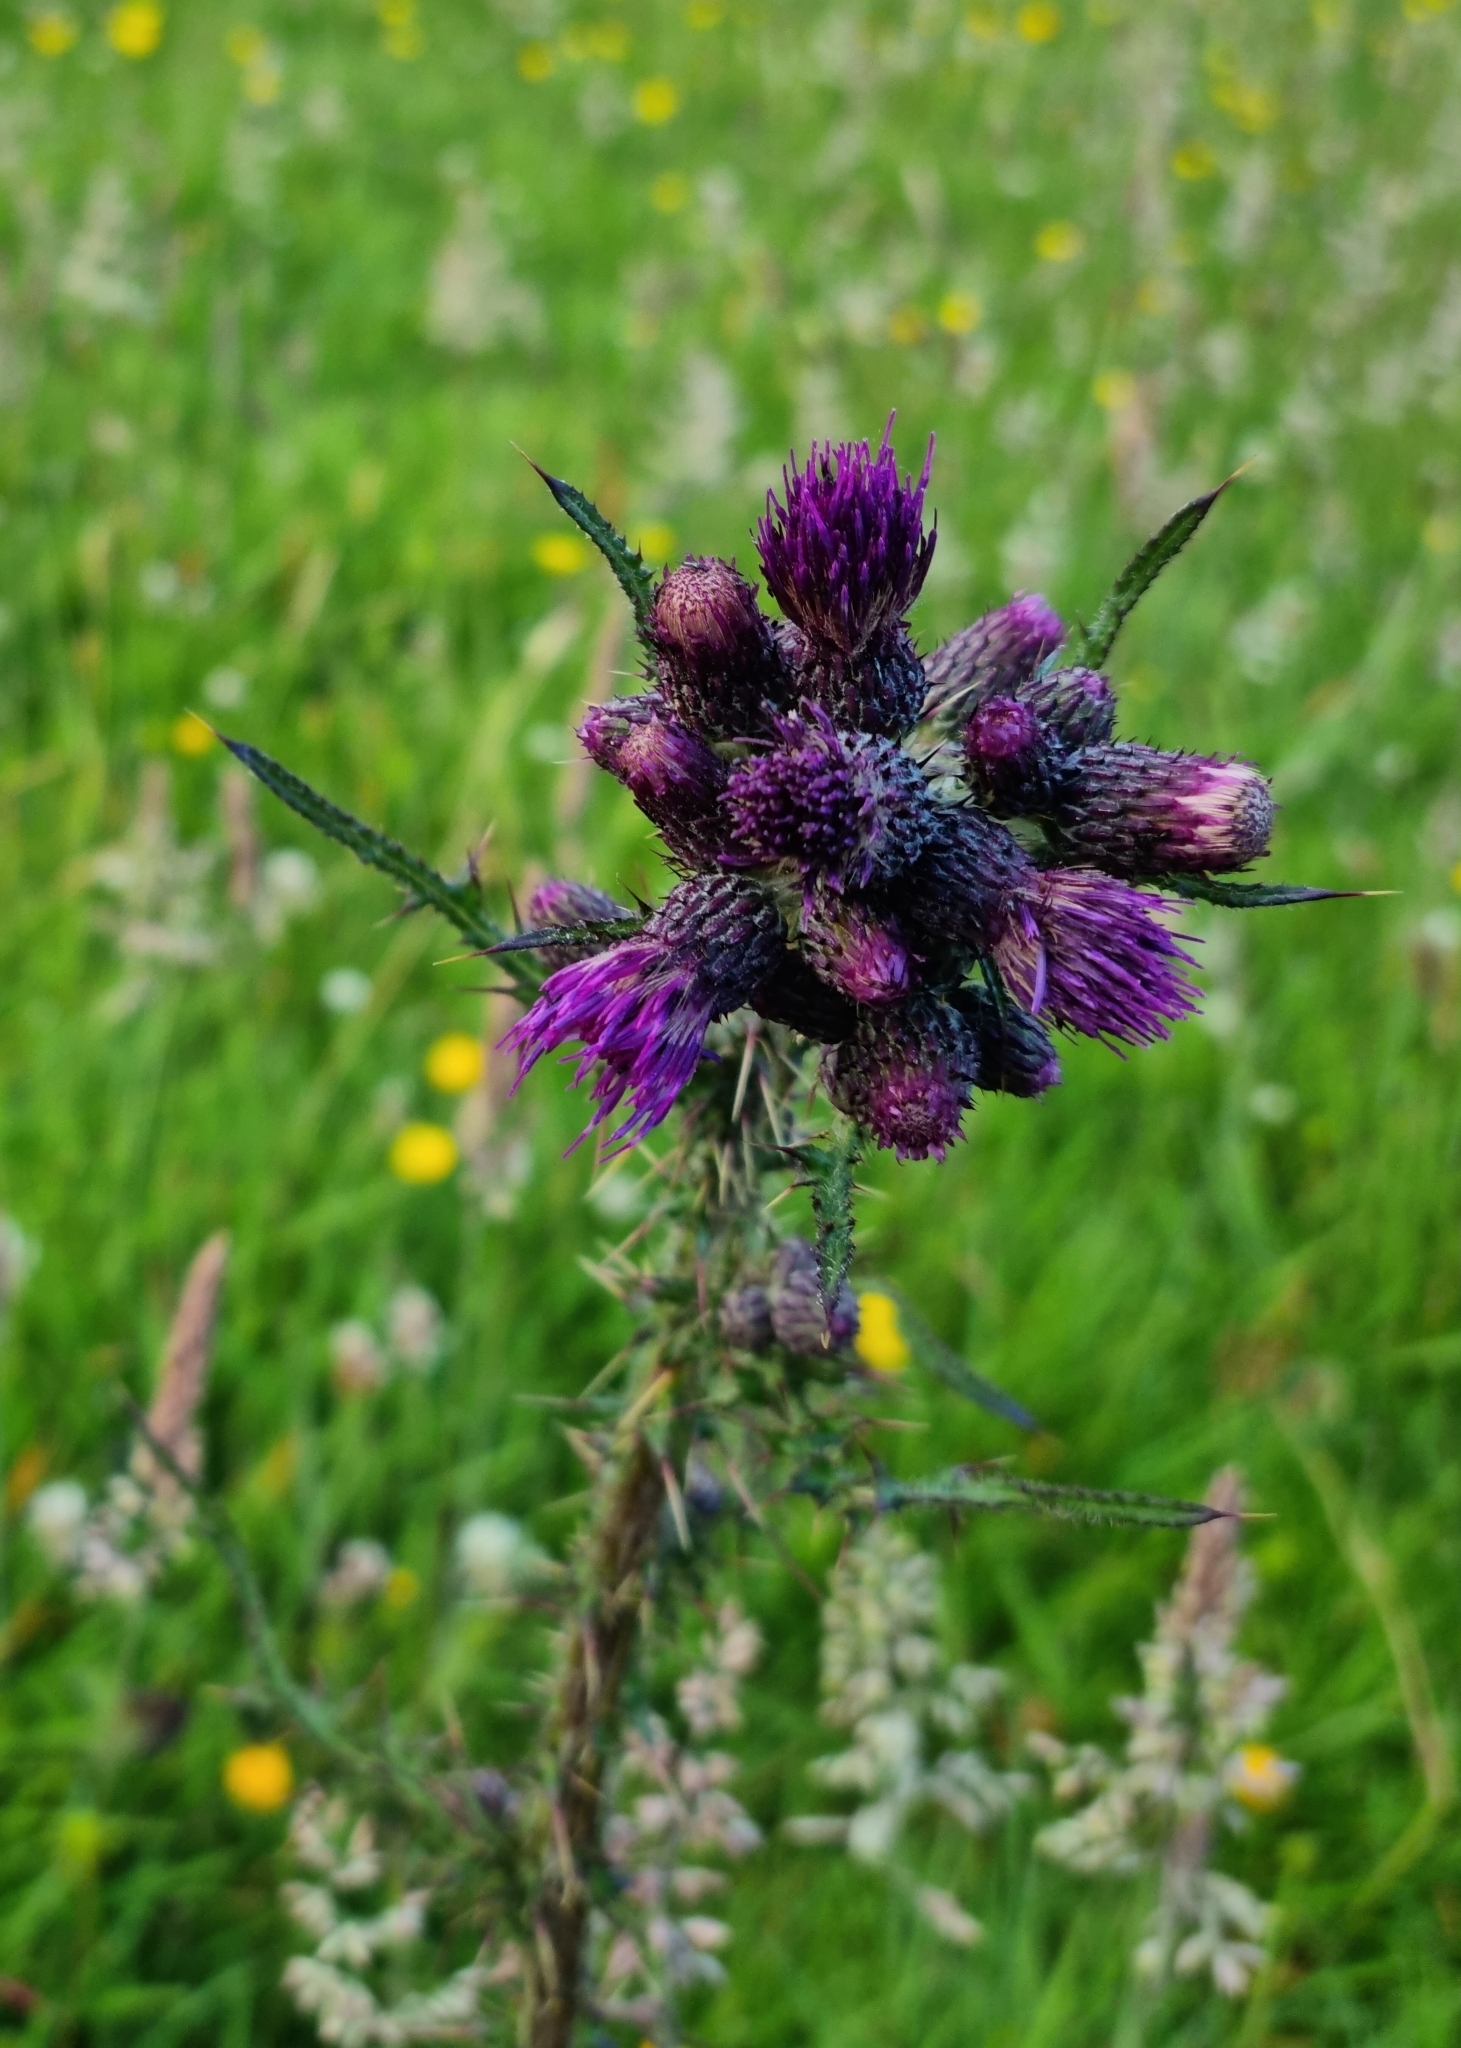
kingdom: Plantae
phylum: Tracheophyta
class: Magnoliopsida
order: Asterales
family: Asteraceae
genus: Cirsium
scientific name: Cirsium palustre
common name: Marsh thistle
